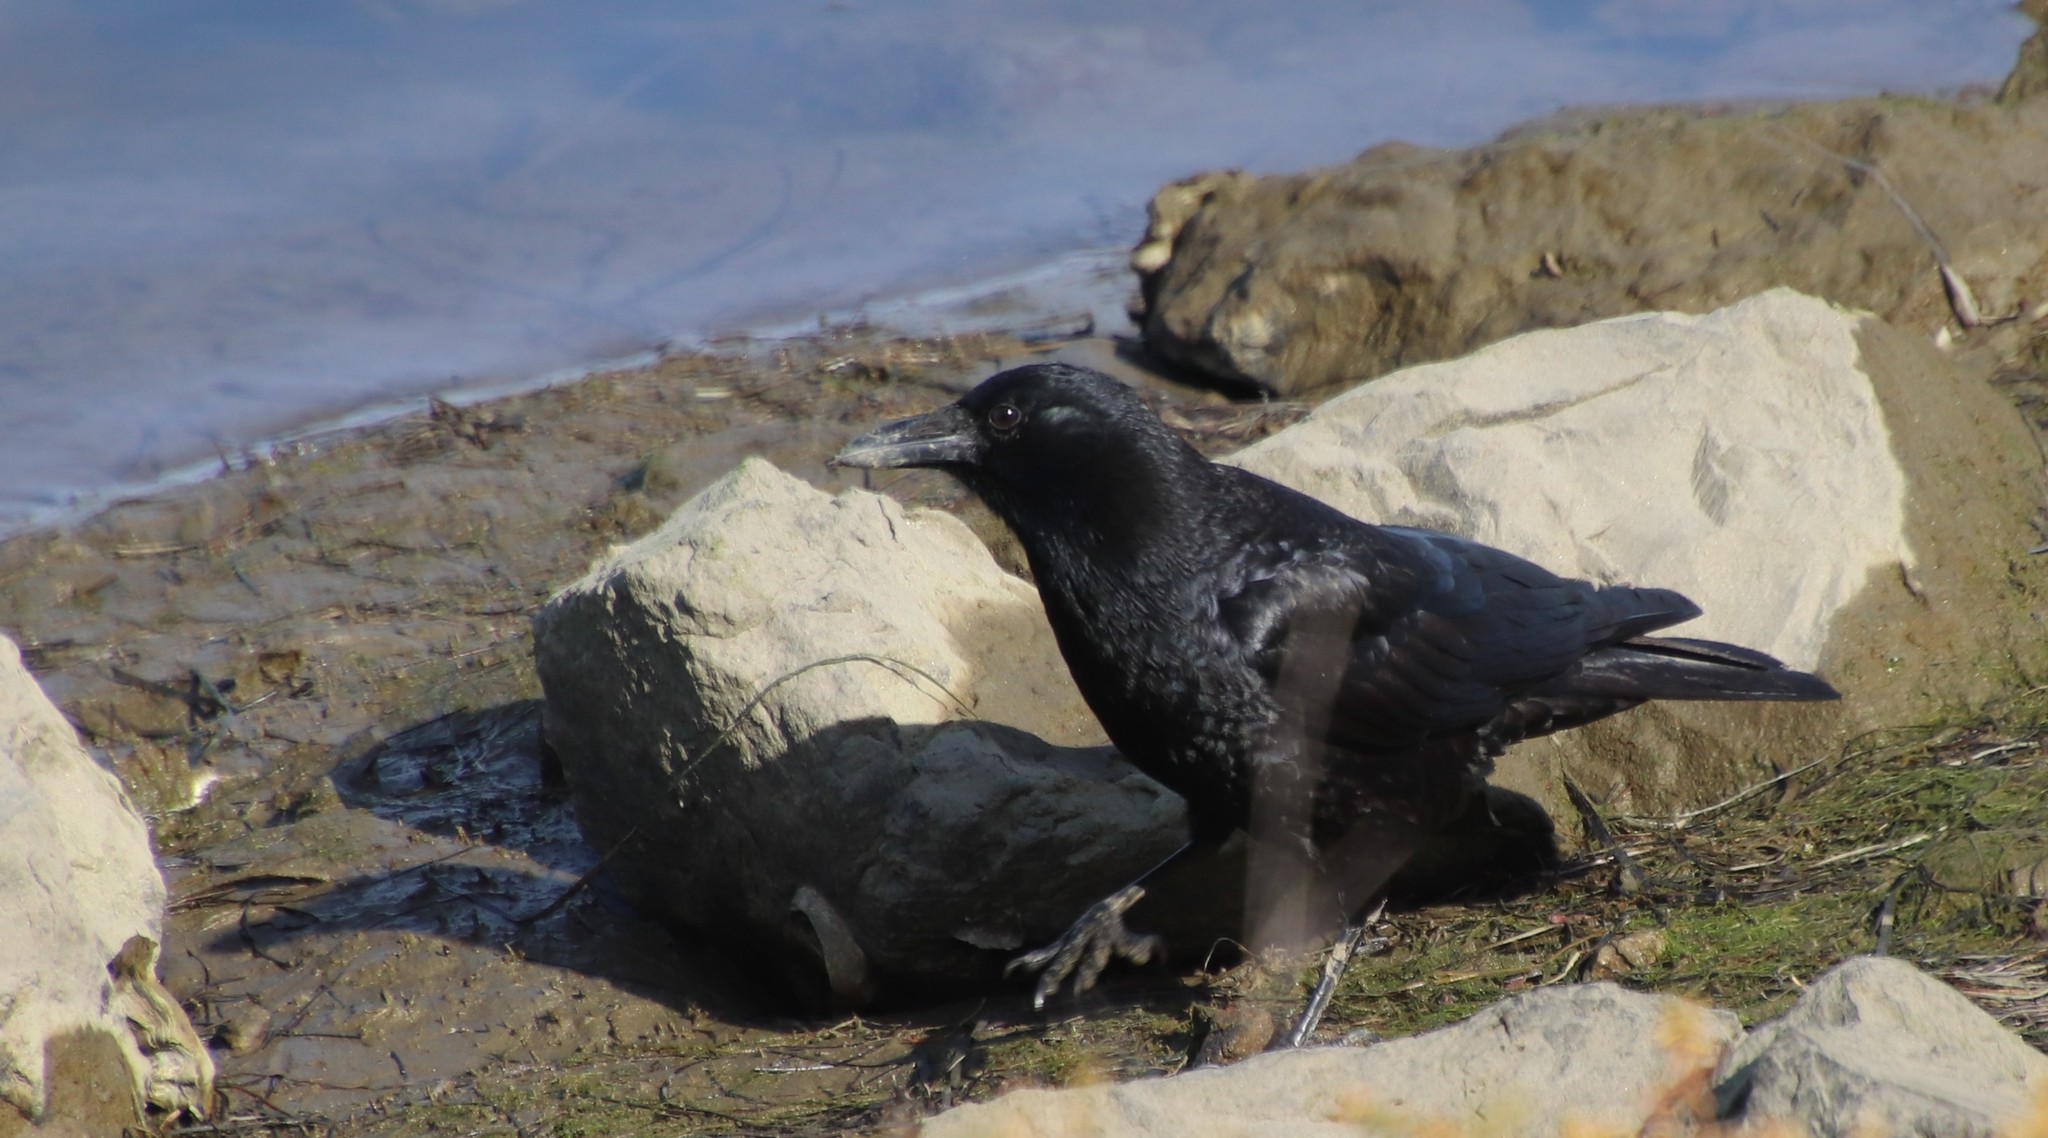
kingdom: Animalia
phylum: Chordata
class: Aves
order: Passeriformes
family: Corvidae
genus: Corvus
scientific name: Corvus brachyrhynchos
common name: American crow
